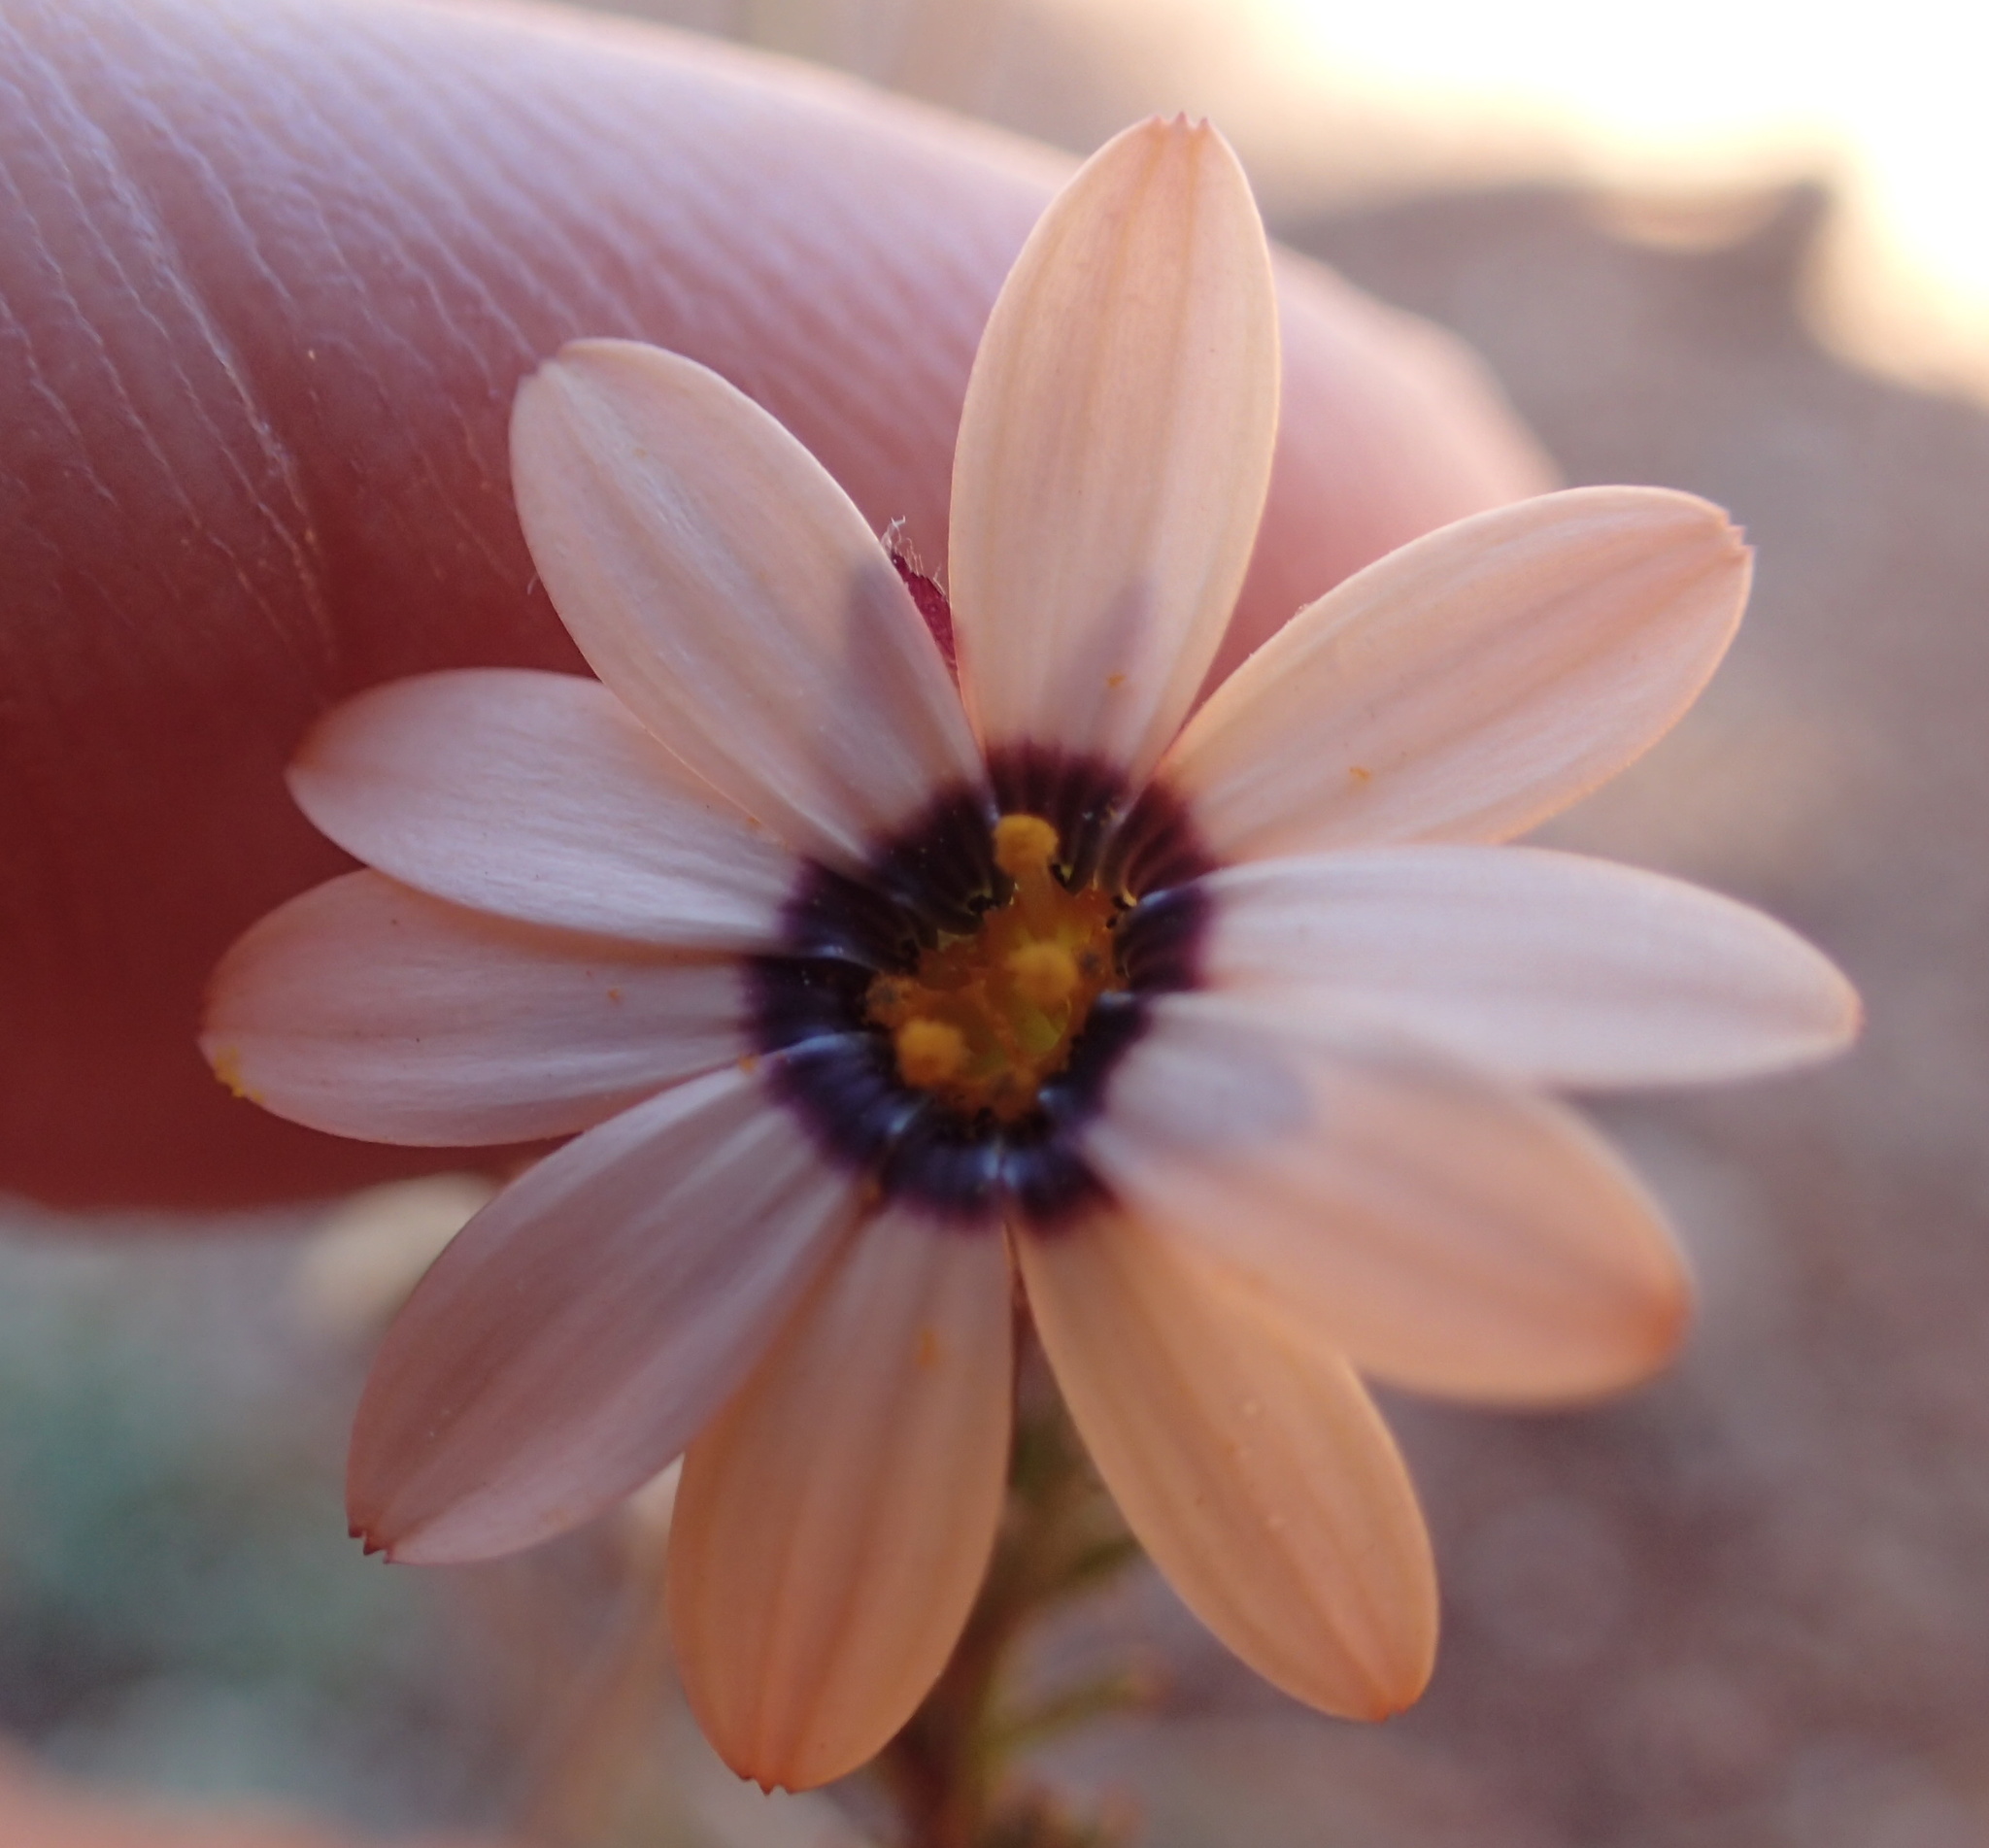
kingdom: Plantae
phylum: Tracheophyta
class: Magnoliopsida
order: Asterales
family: Asteraceae
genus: Dimorphotheca
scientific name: Dimorphotheca pinnata
